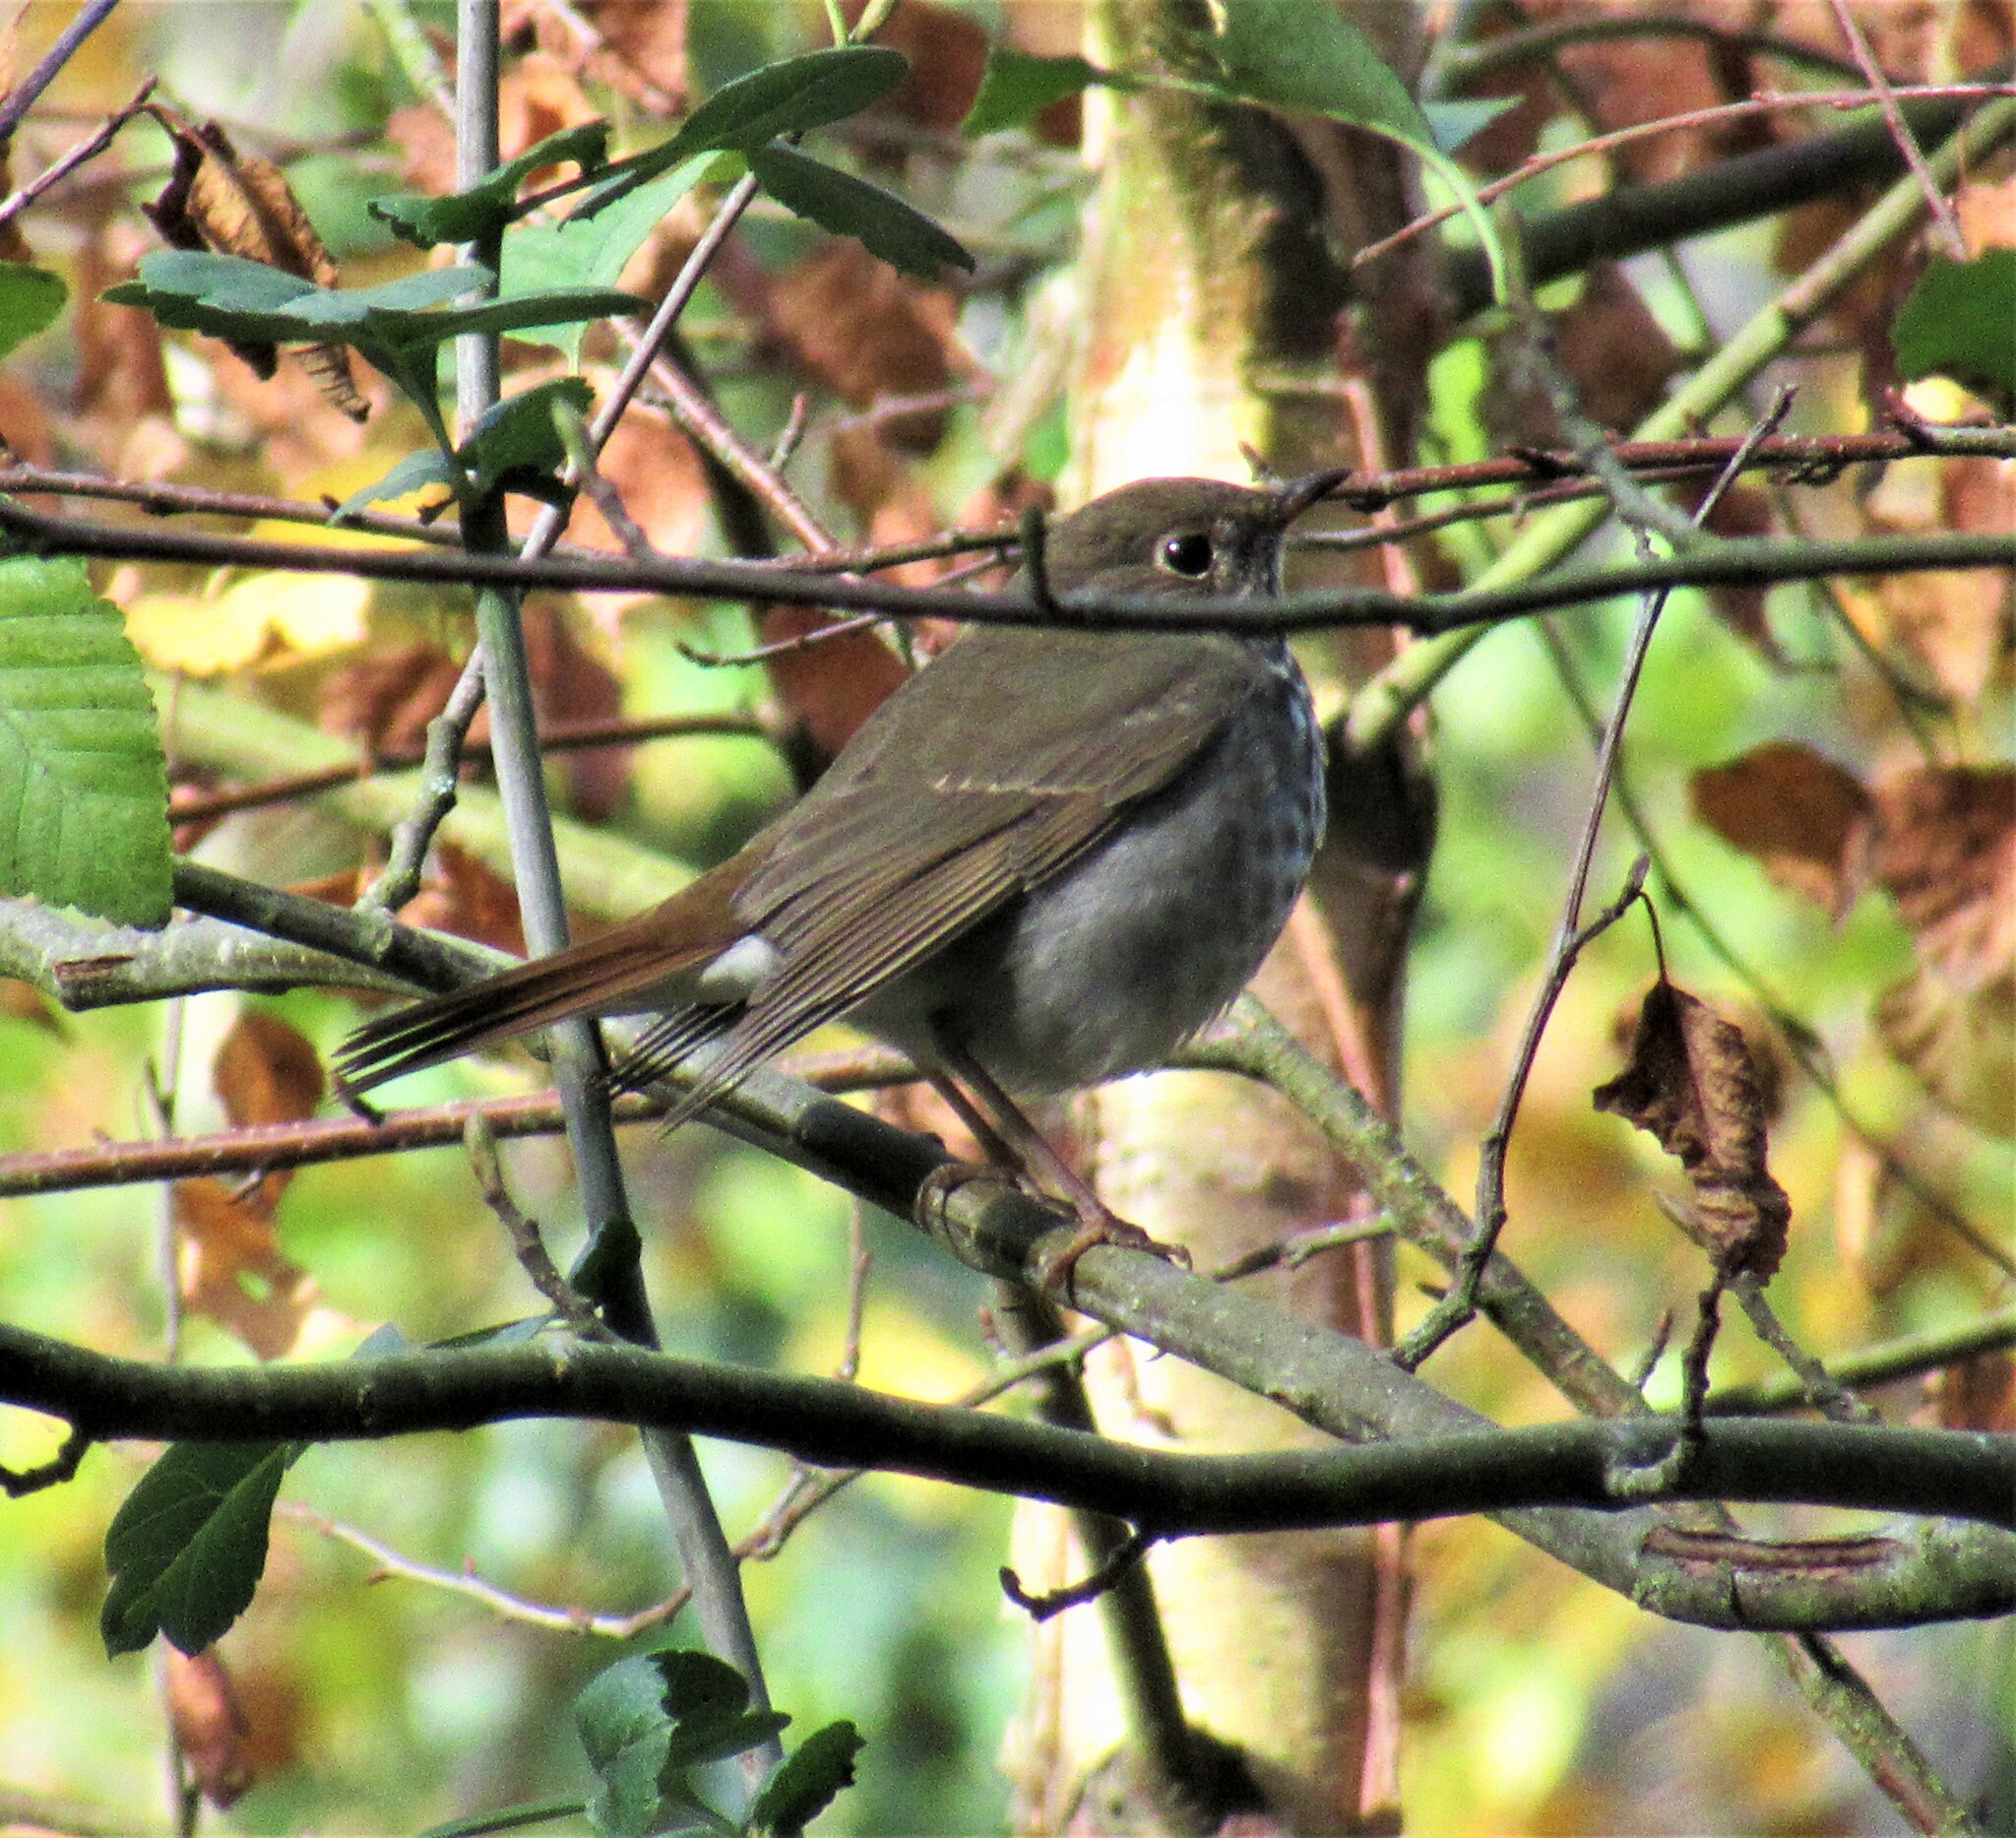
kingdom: Animalia
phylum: Chordata
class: Aves
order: Passeriformes
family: Turdidae
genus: Catharus
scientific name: Catharus guttatus
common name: Hermit thrush
